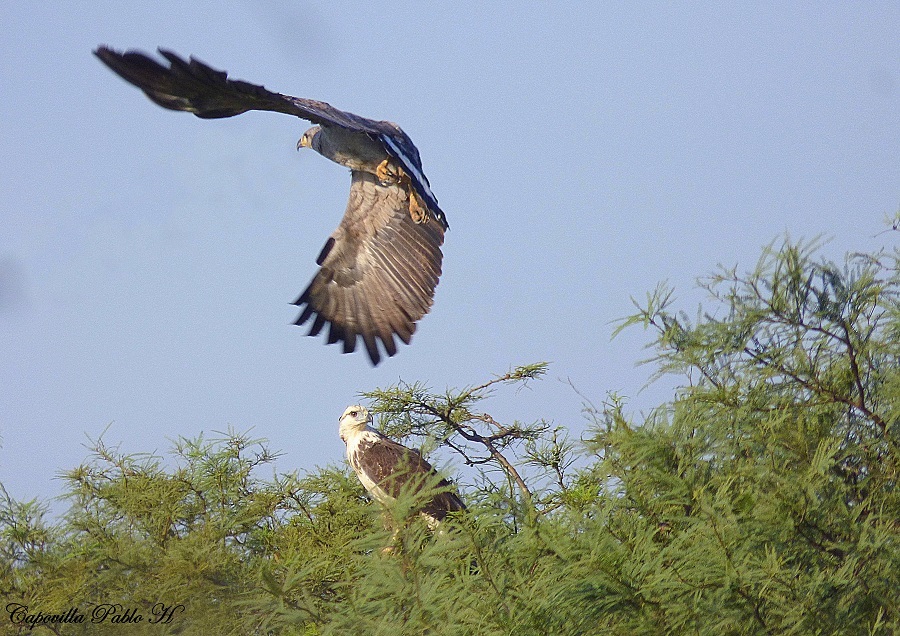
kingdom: Animalia
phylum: Chordata
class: Aves
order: Accipitriformes
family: Accipitridae
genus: Harpyhaliaetus
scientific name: Harpyhaliaetus coronatus
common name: Crowned solitary eagle
